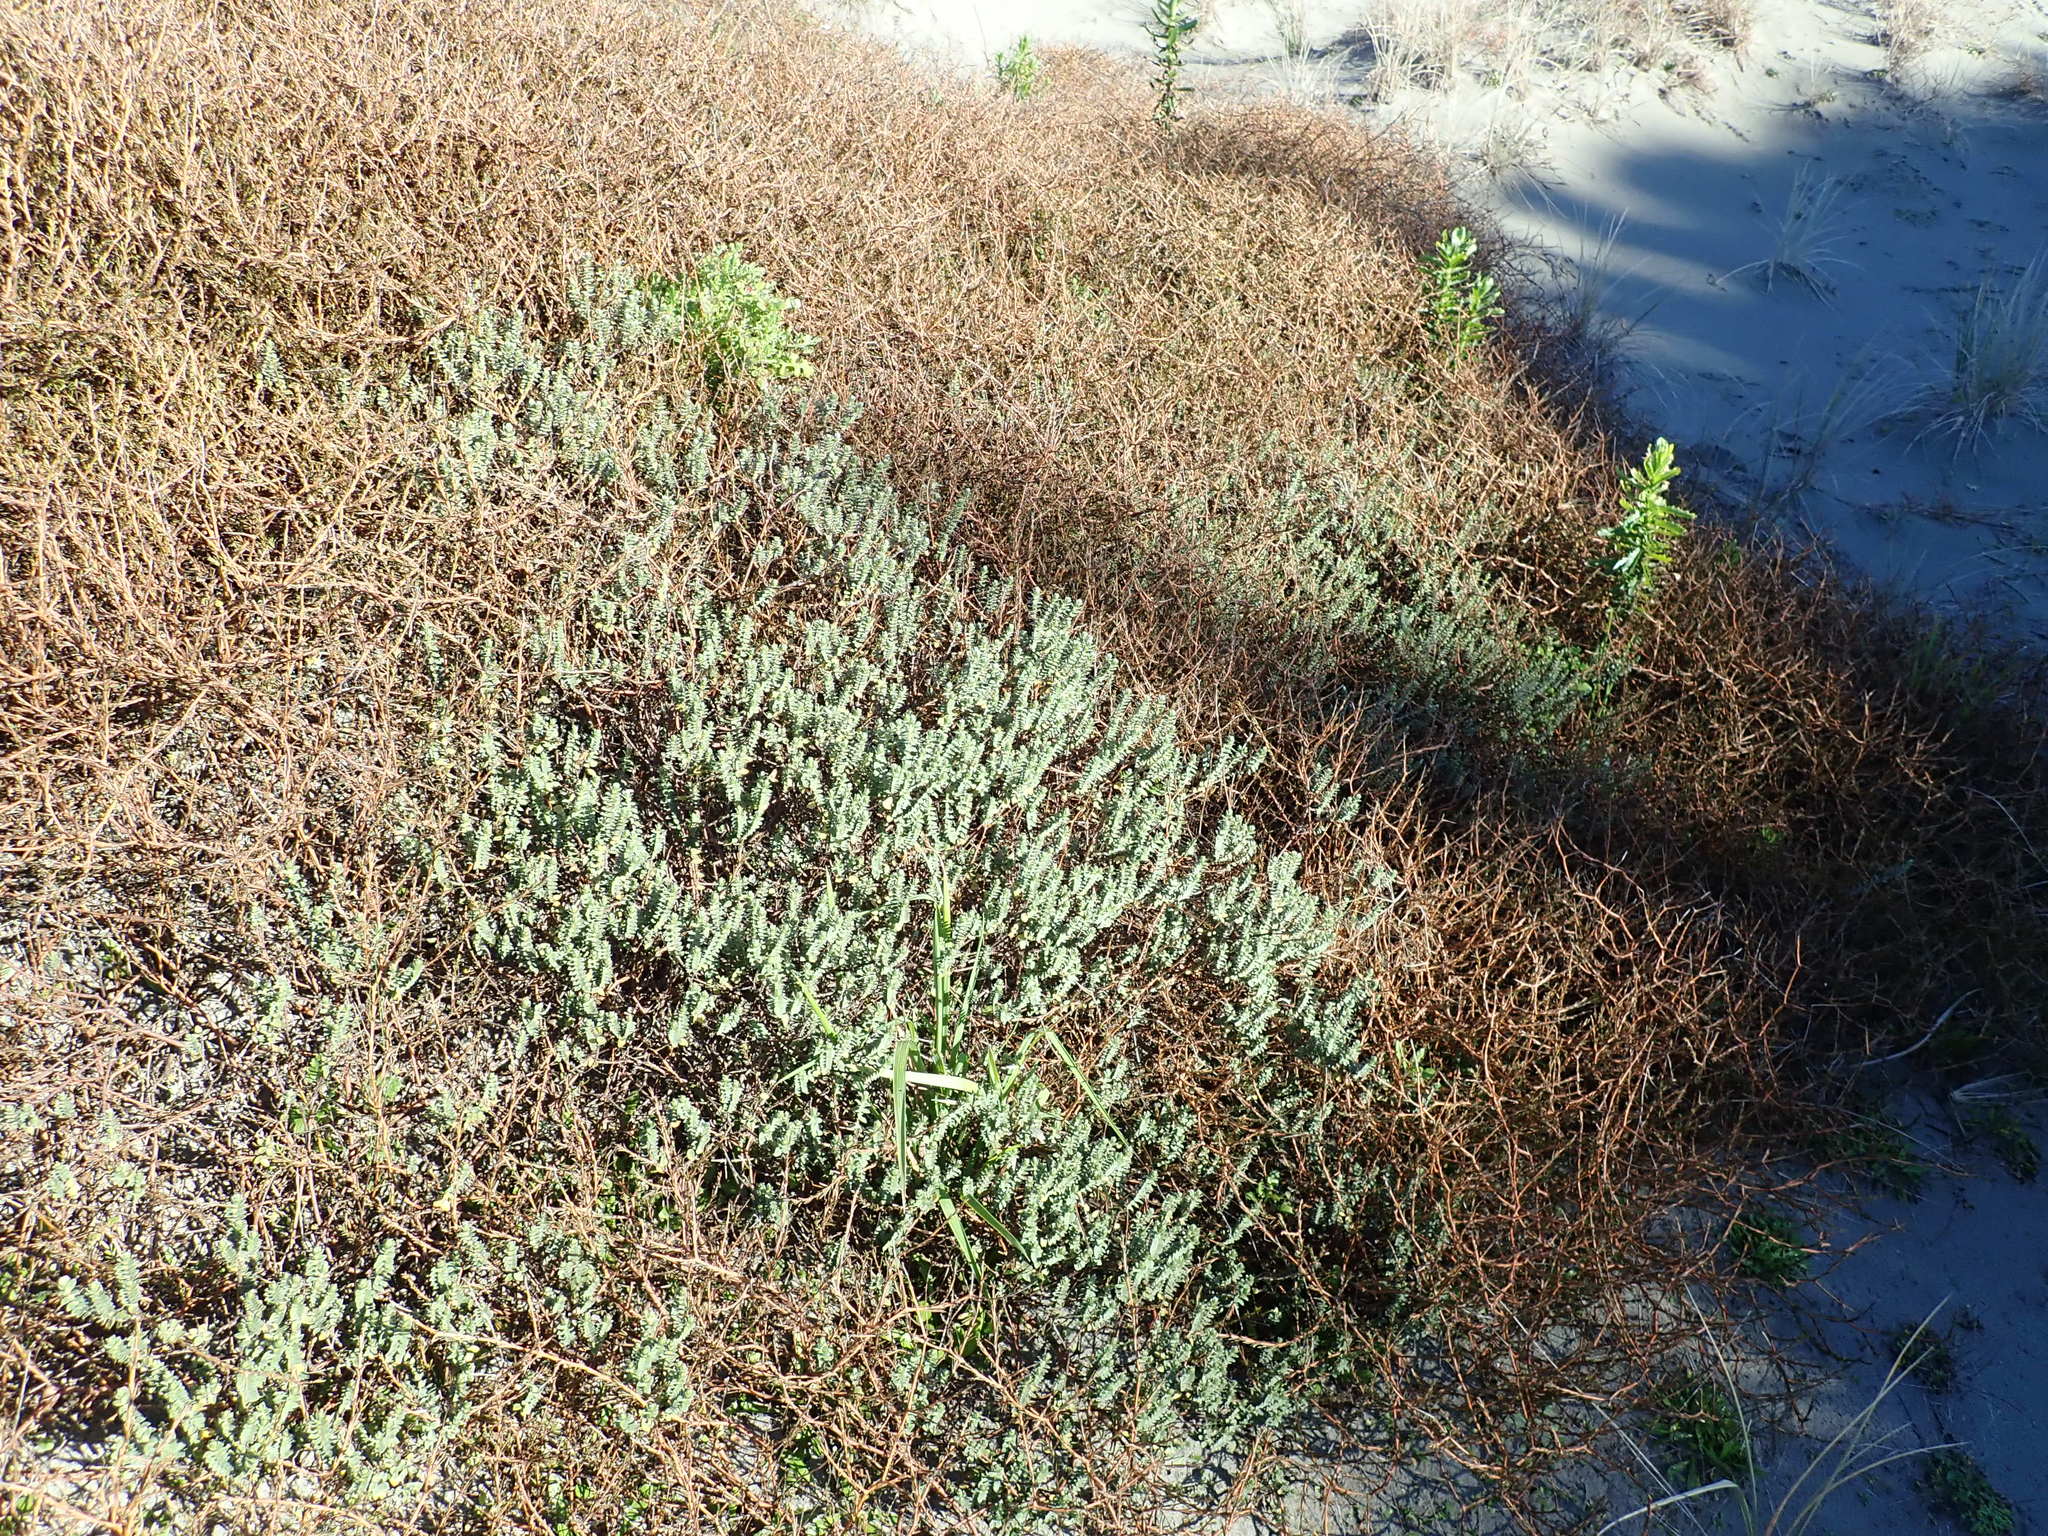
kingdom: Plantae
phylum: Tracheophyta
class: Magnoliopsida
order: Gentianales
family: Rubiaceae
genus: Coprosma
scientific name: Coprosma acerosa
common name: Sand coprosma
